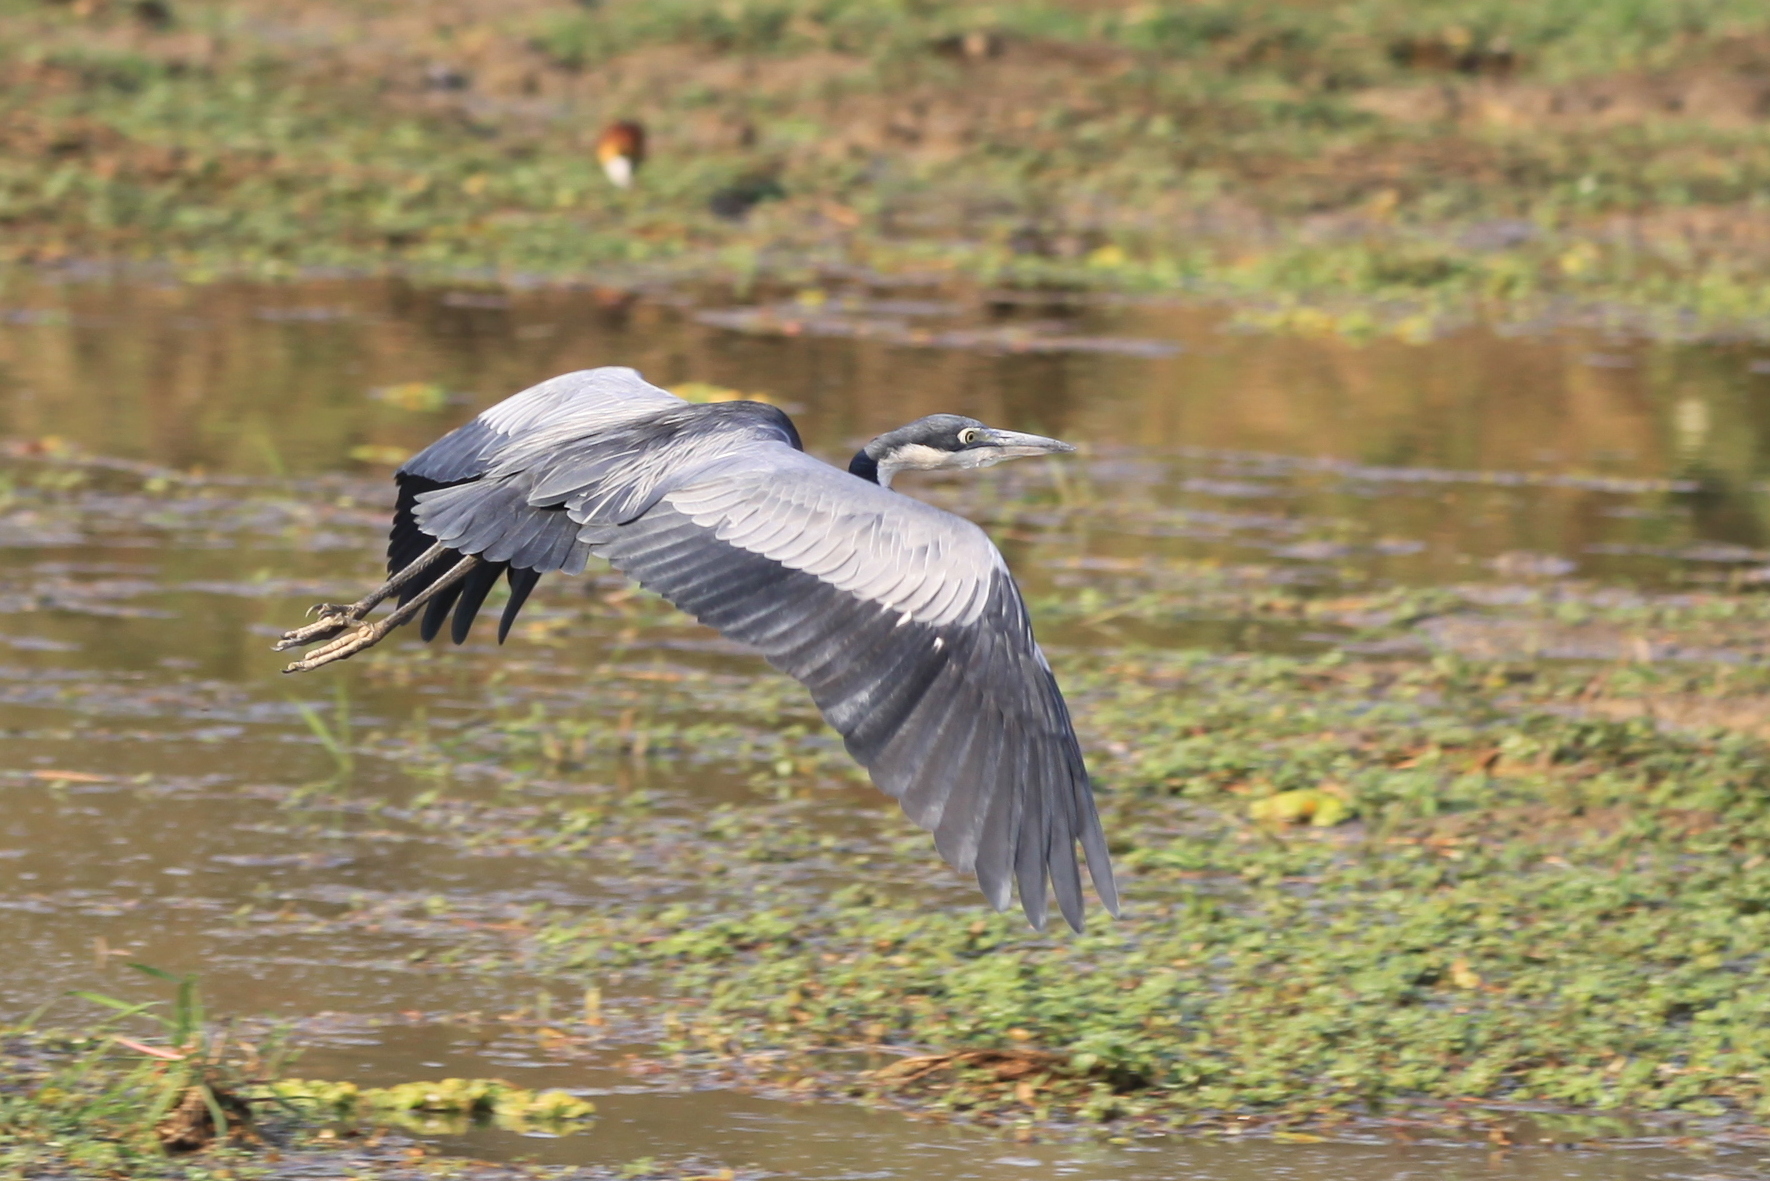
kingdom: Animalia
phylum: Chordata
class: Aves
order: Pelecaniformes
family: Ardeidae
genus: Ardea
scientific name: Ardea melanocephala
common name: Black-headed heron
